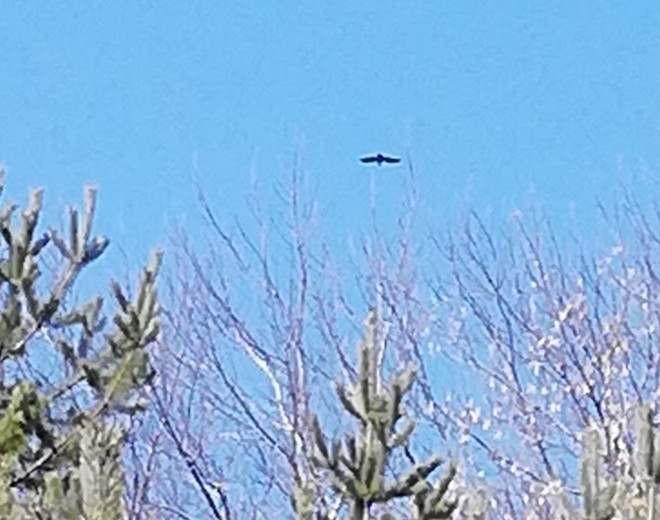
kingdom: Animalia
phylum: Chordata
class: Aves
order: Passeriformes
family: Corvidae
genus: Corvus
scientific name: Corvus corax
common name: Common raven
